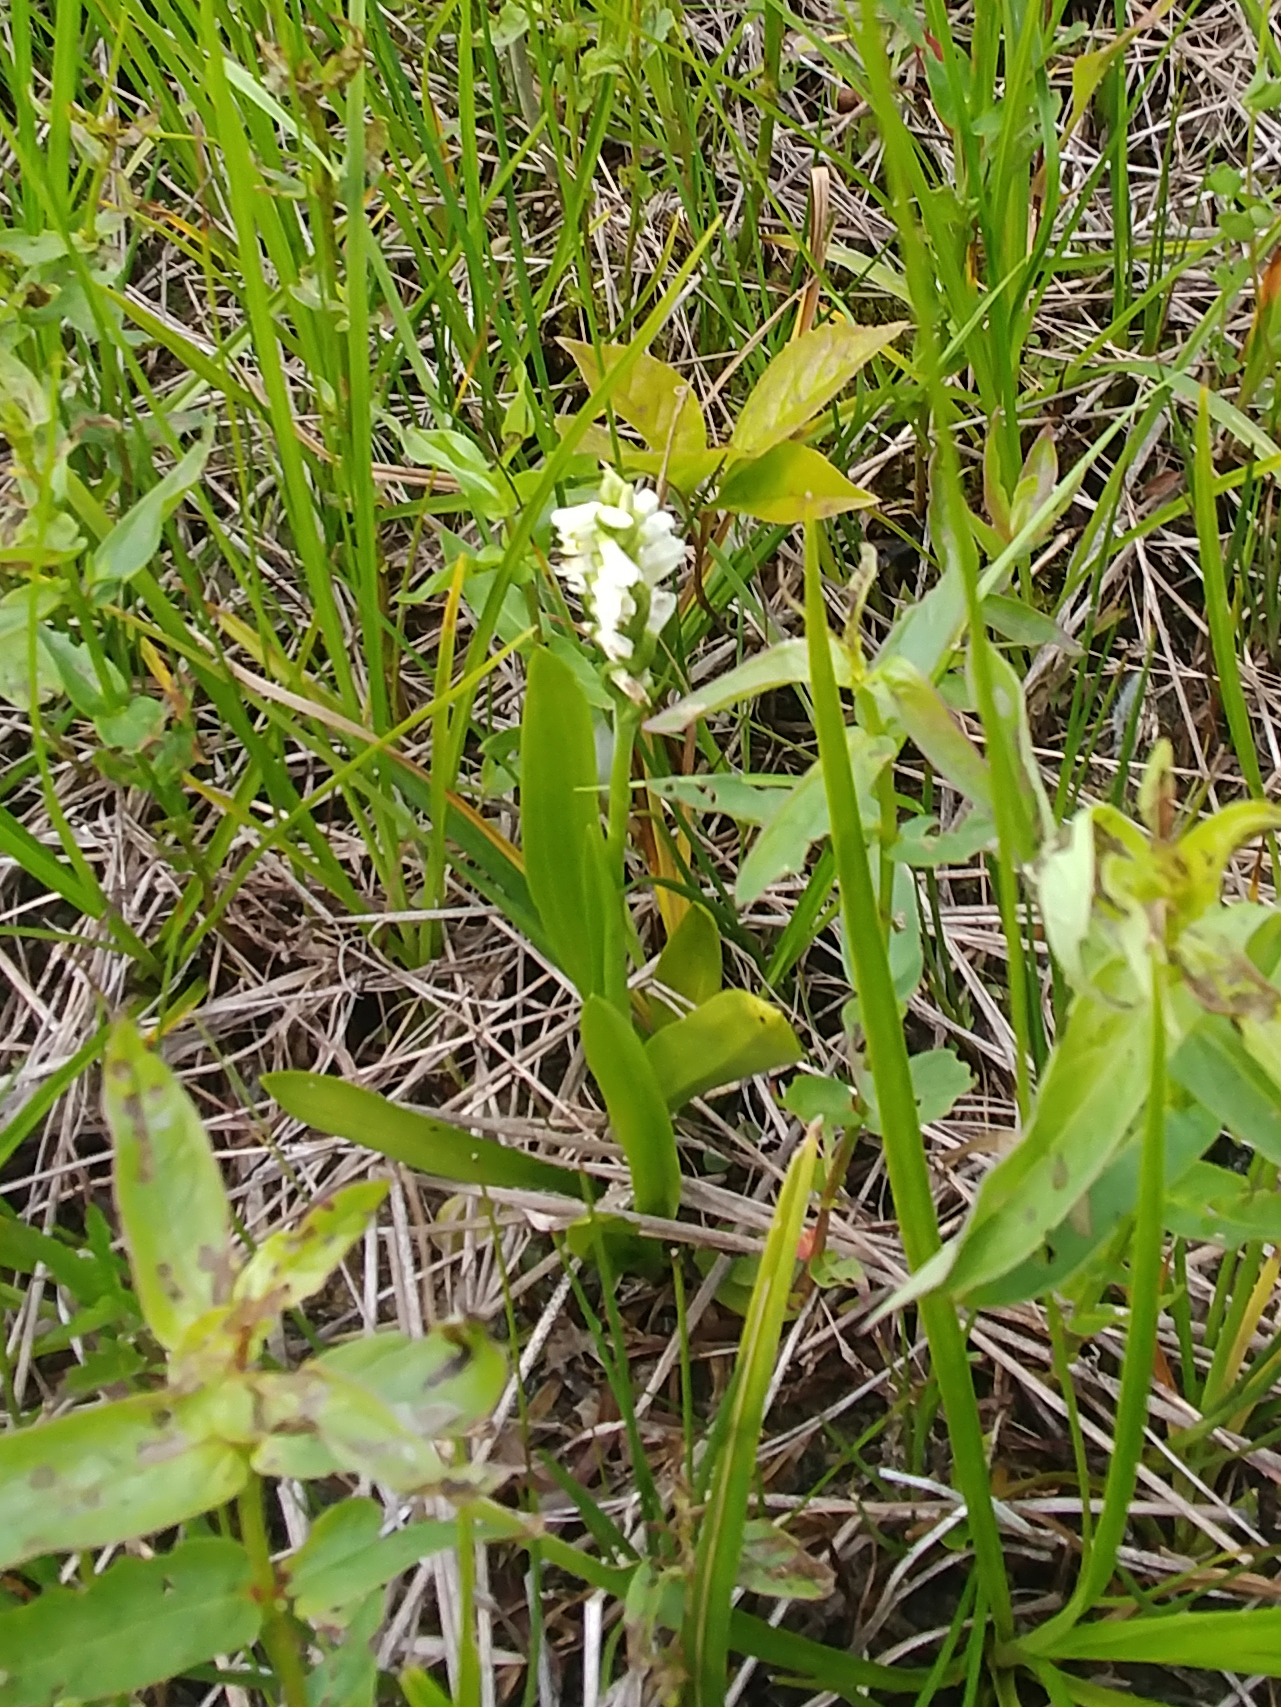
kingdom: Plantae
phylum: Tracheophyta
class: Liliopsida
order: Asparagales
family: Orchidaceae
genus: Spiranthes
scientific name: Spiranthes lucida
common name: Broad-leaved ladies'-tresses
